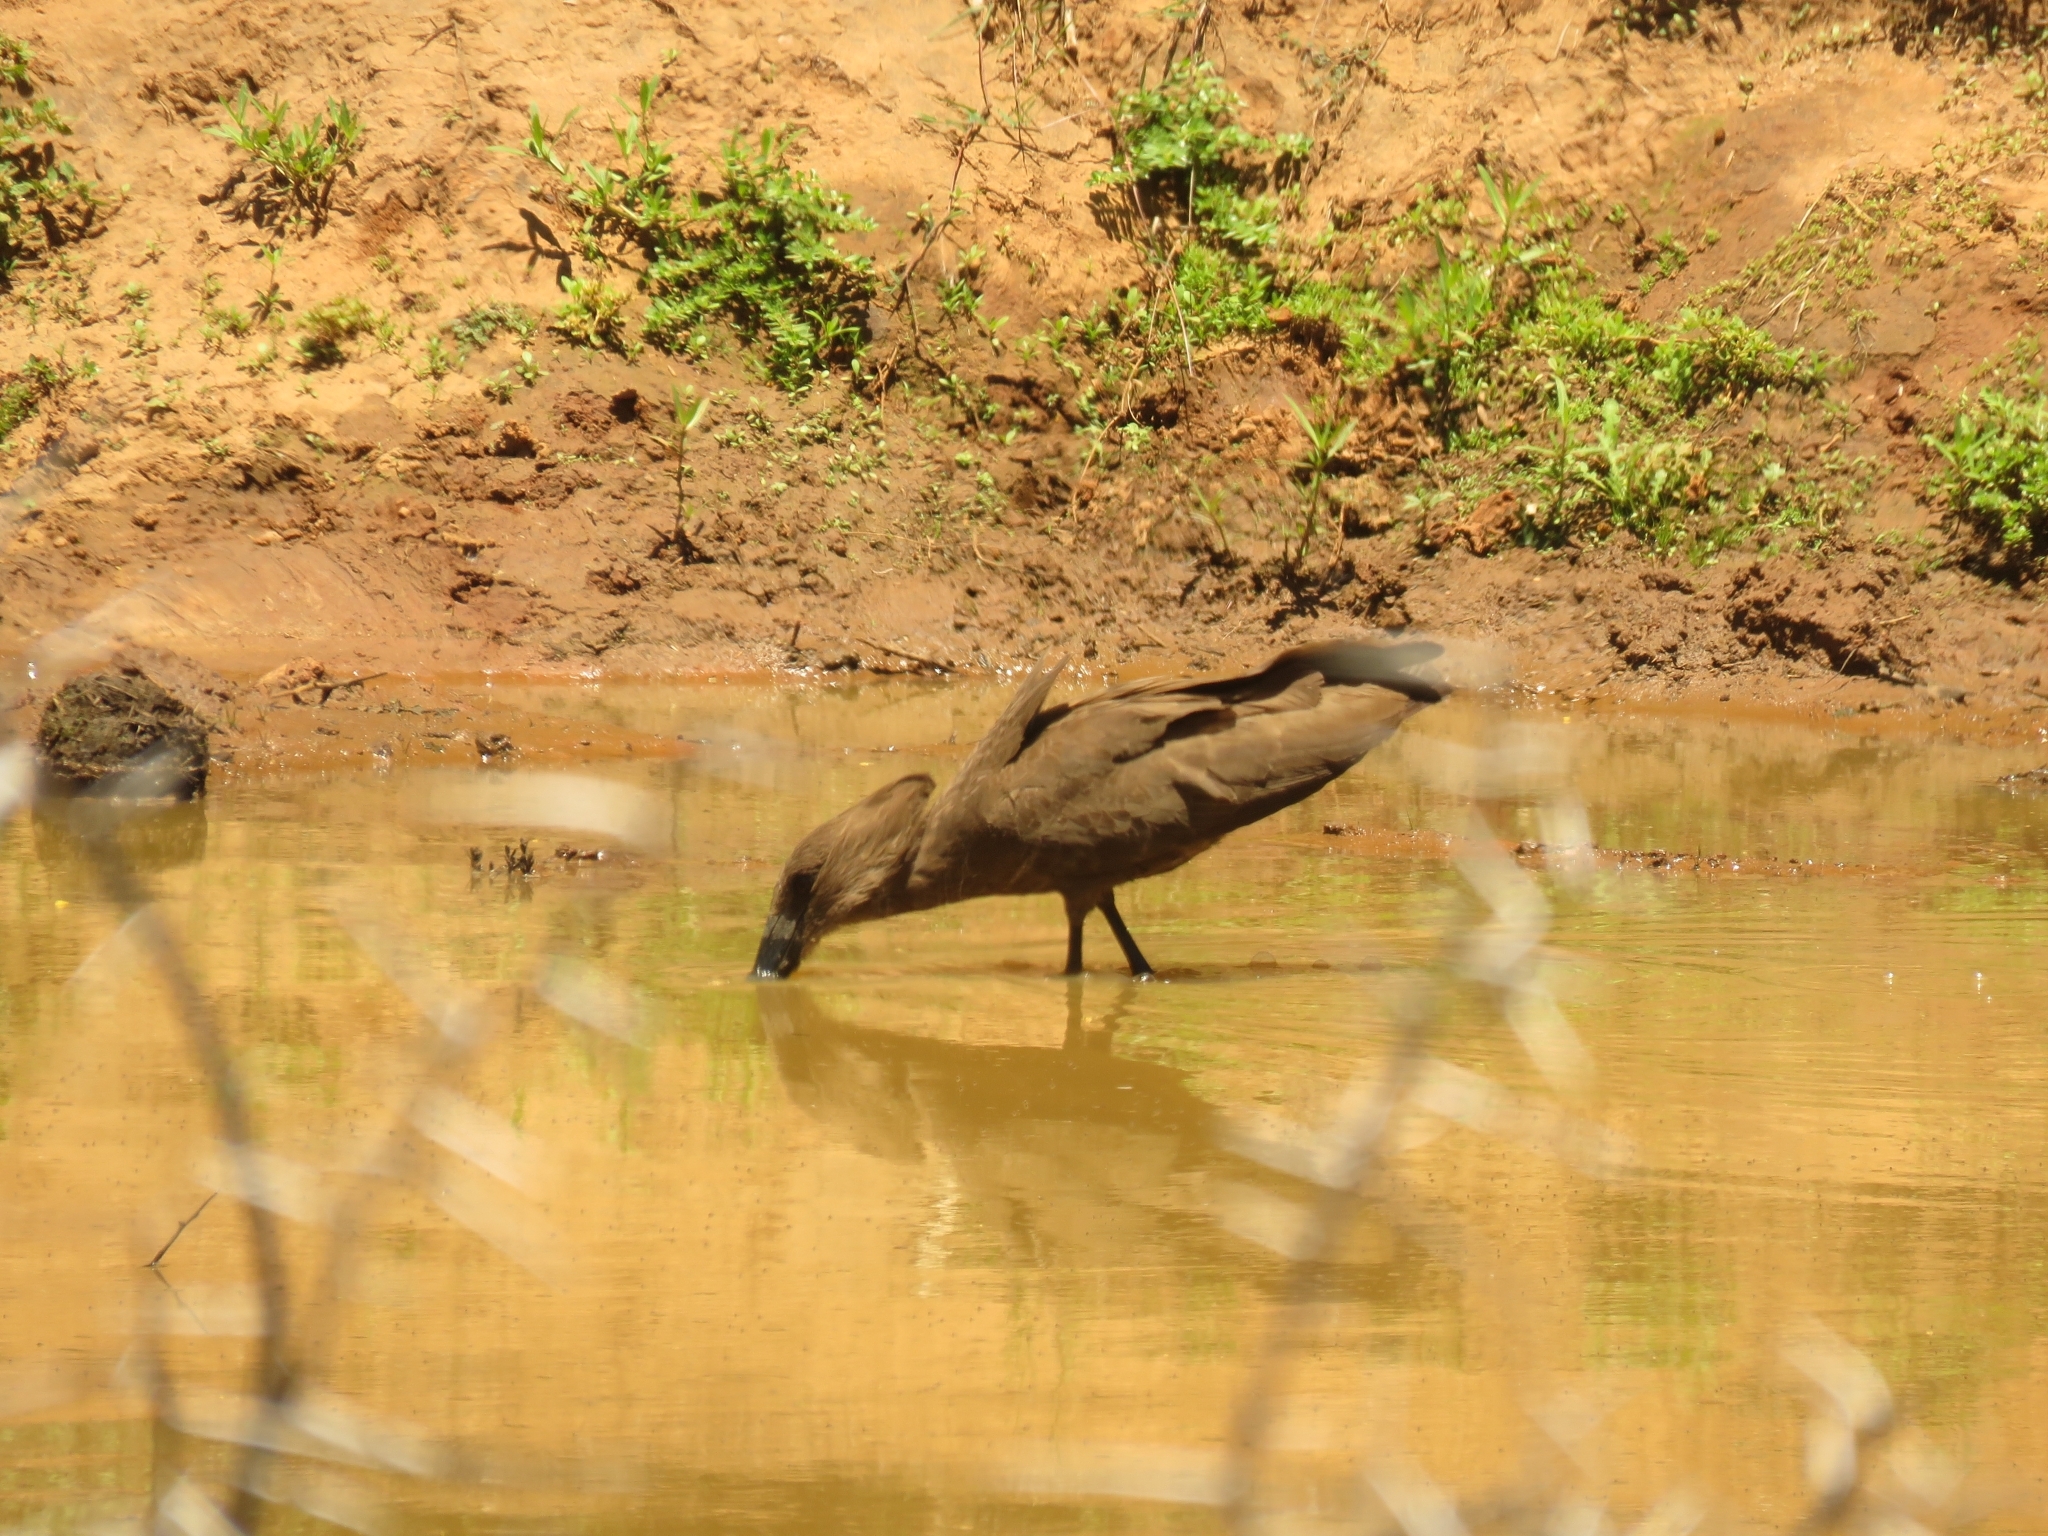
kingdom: Animalia
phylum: Chordata
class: Aves
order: Pelecaniformes
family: Scopidae
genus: Scopus
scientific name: Scopus umbretta
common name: Hamerkop
